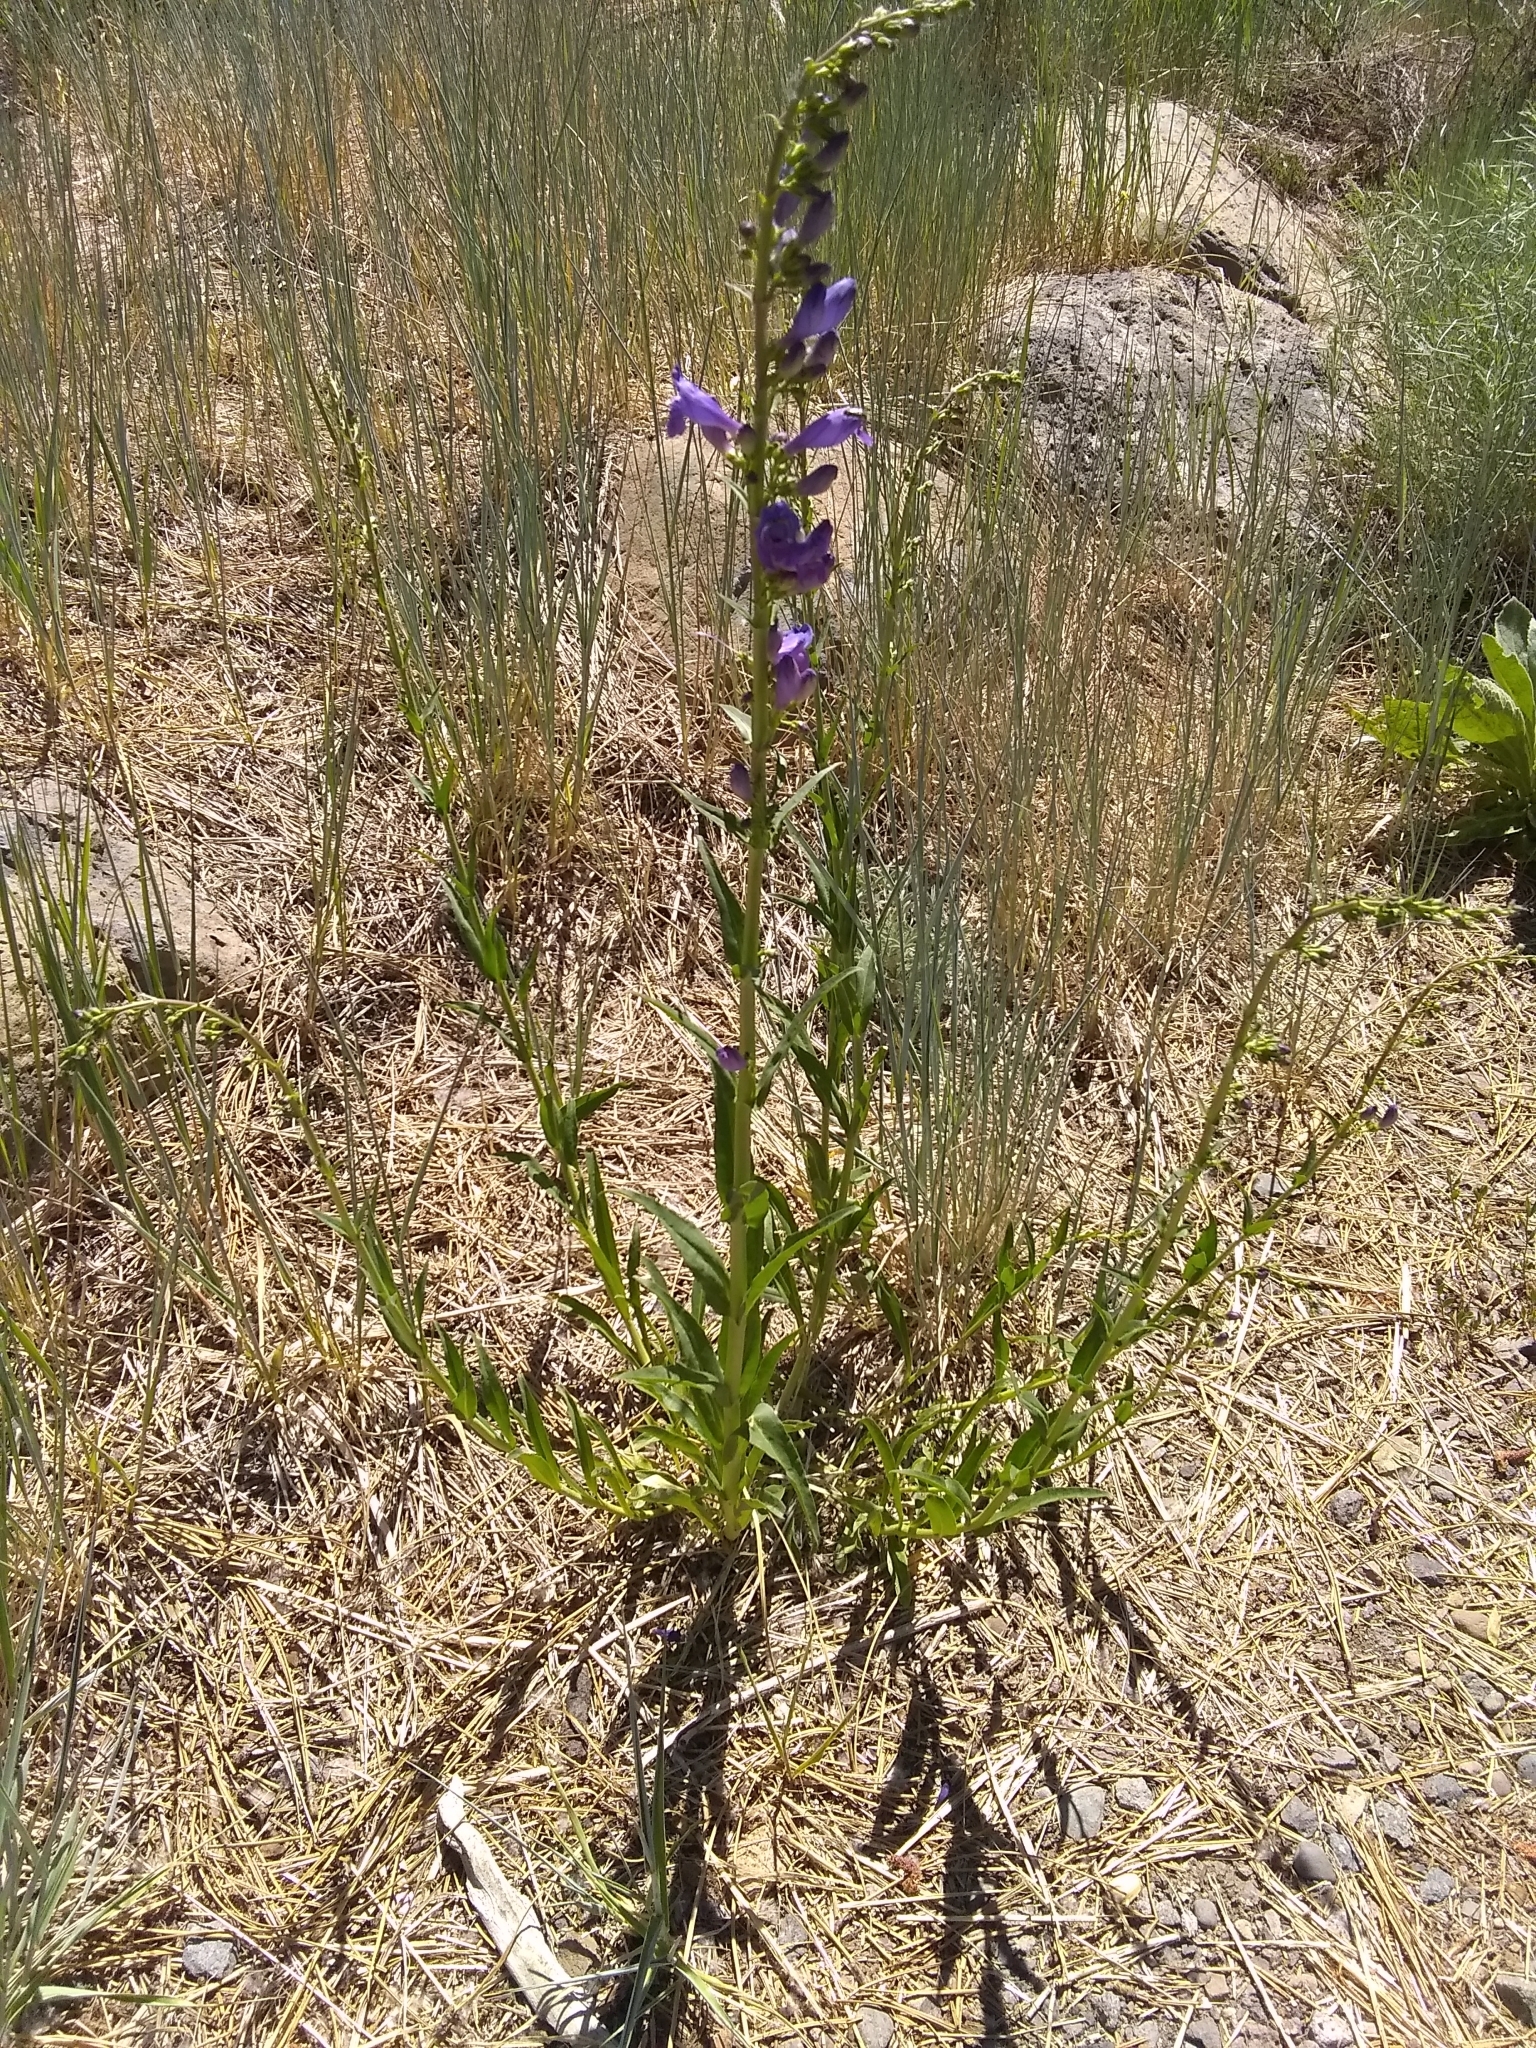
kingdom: Plantae
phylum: Tracheophyta
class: Magnoliopsida
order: Lamiales
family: Plantaginaceae
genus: Penstemon
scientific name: Penstemon strictus
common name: Rocky mountain penstemon
